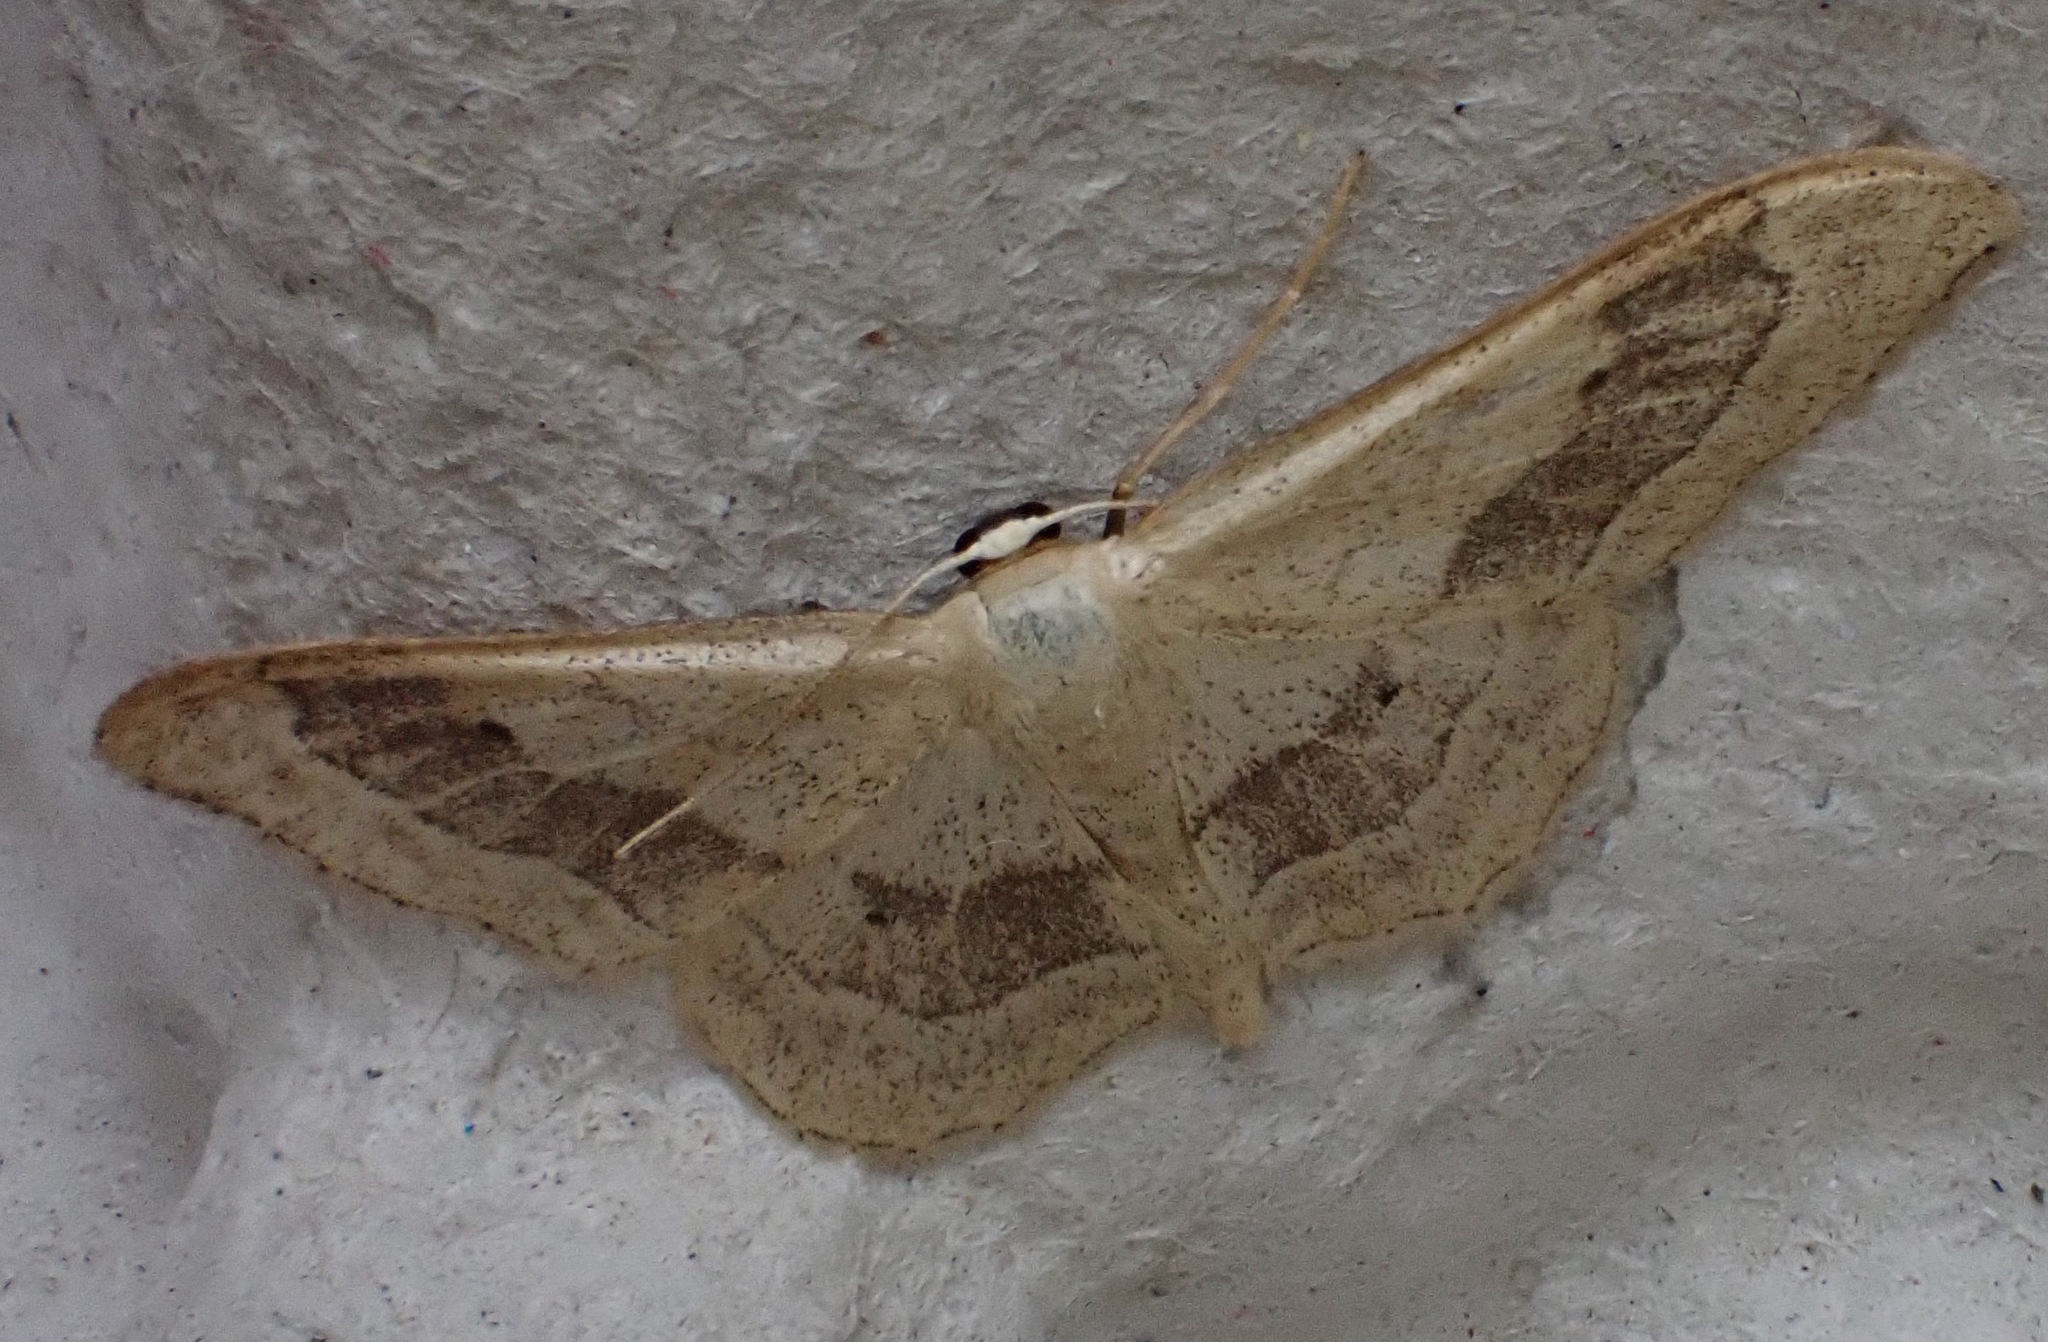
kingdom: Animalia
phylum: Arthropoda
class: Insecta
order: Lepidoptera
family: Geometridae
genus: Idaea
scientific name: Idaea aversata
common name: Riband wave
